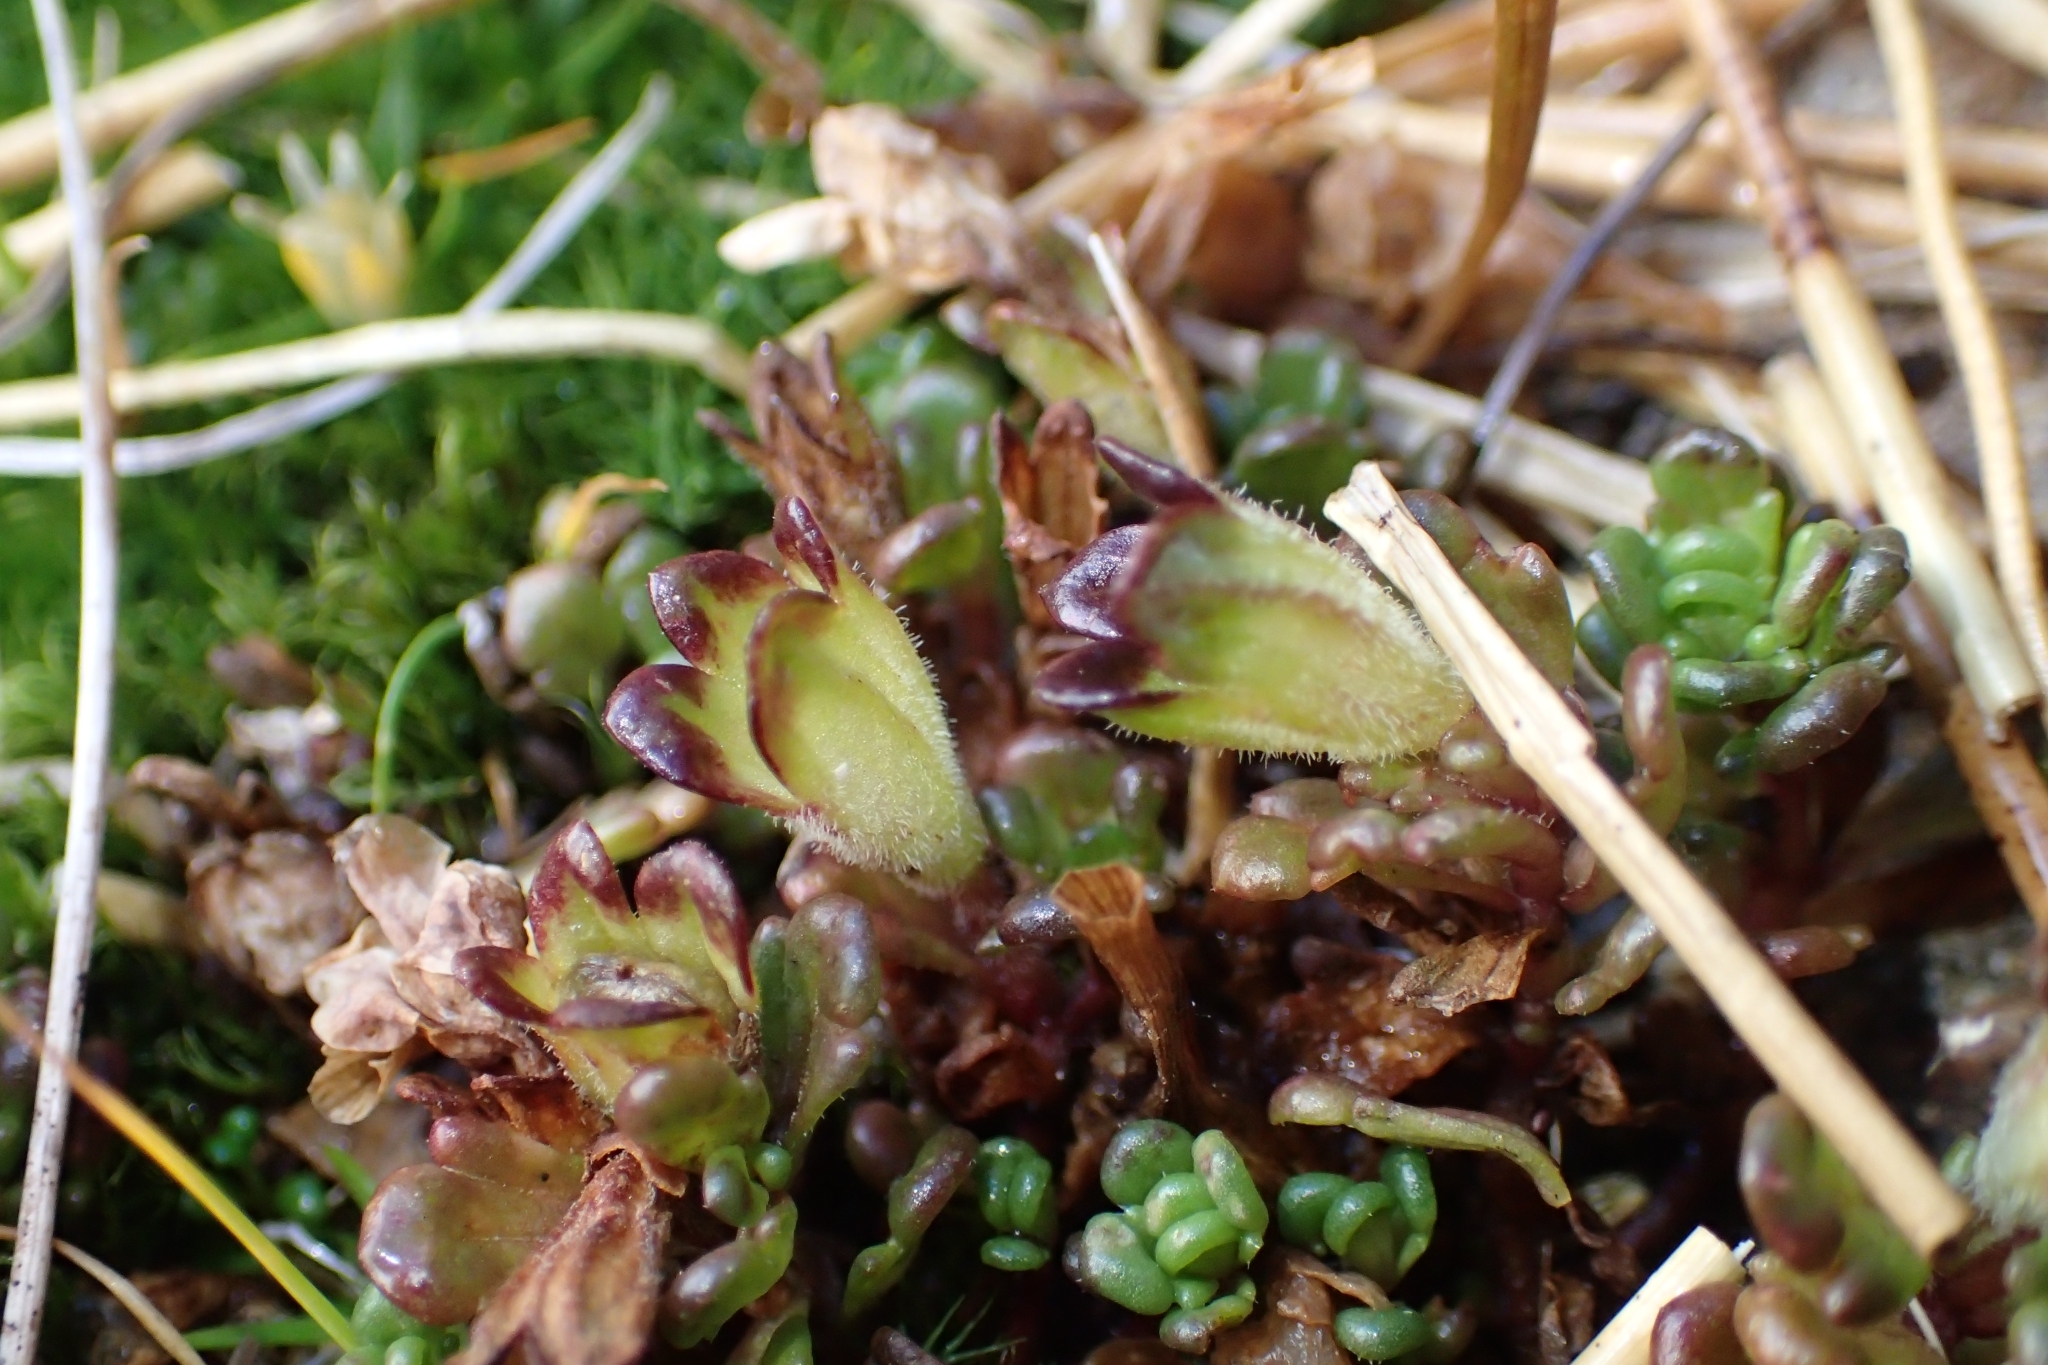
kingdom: Plantae
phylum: Tracheophyta
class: Magnoliopsida
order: Lamiales
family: Orobanchaceae
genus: Euphrasia
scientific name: Euphrasia revoluta
